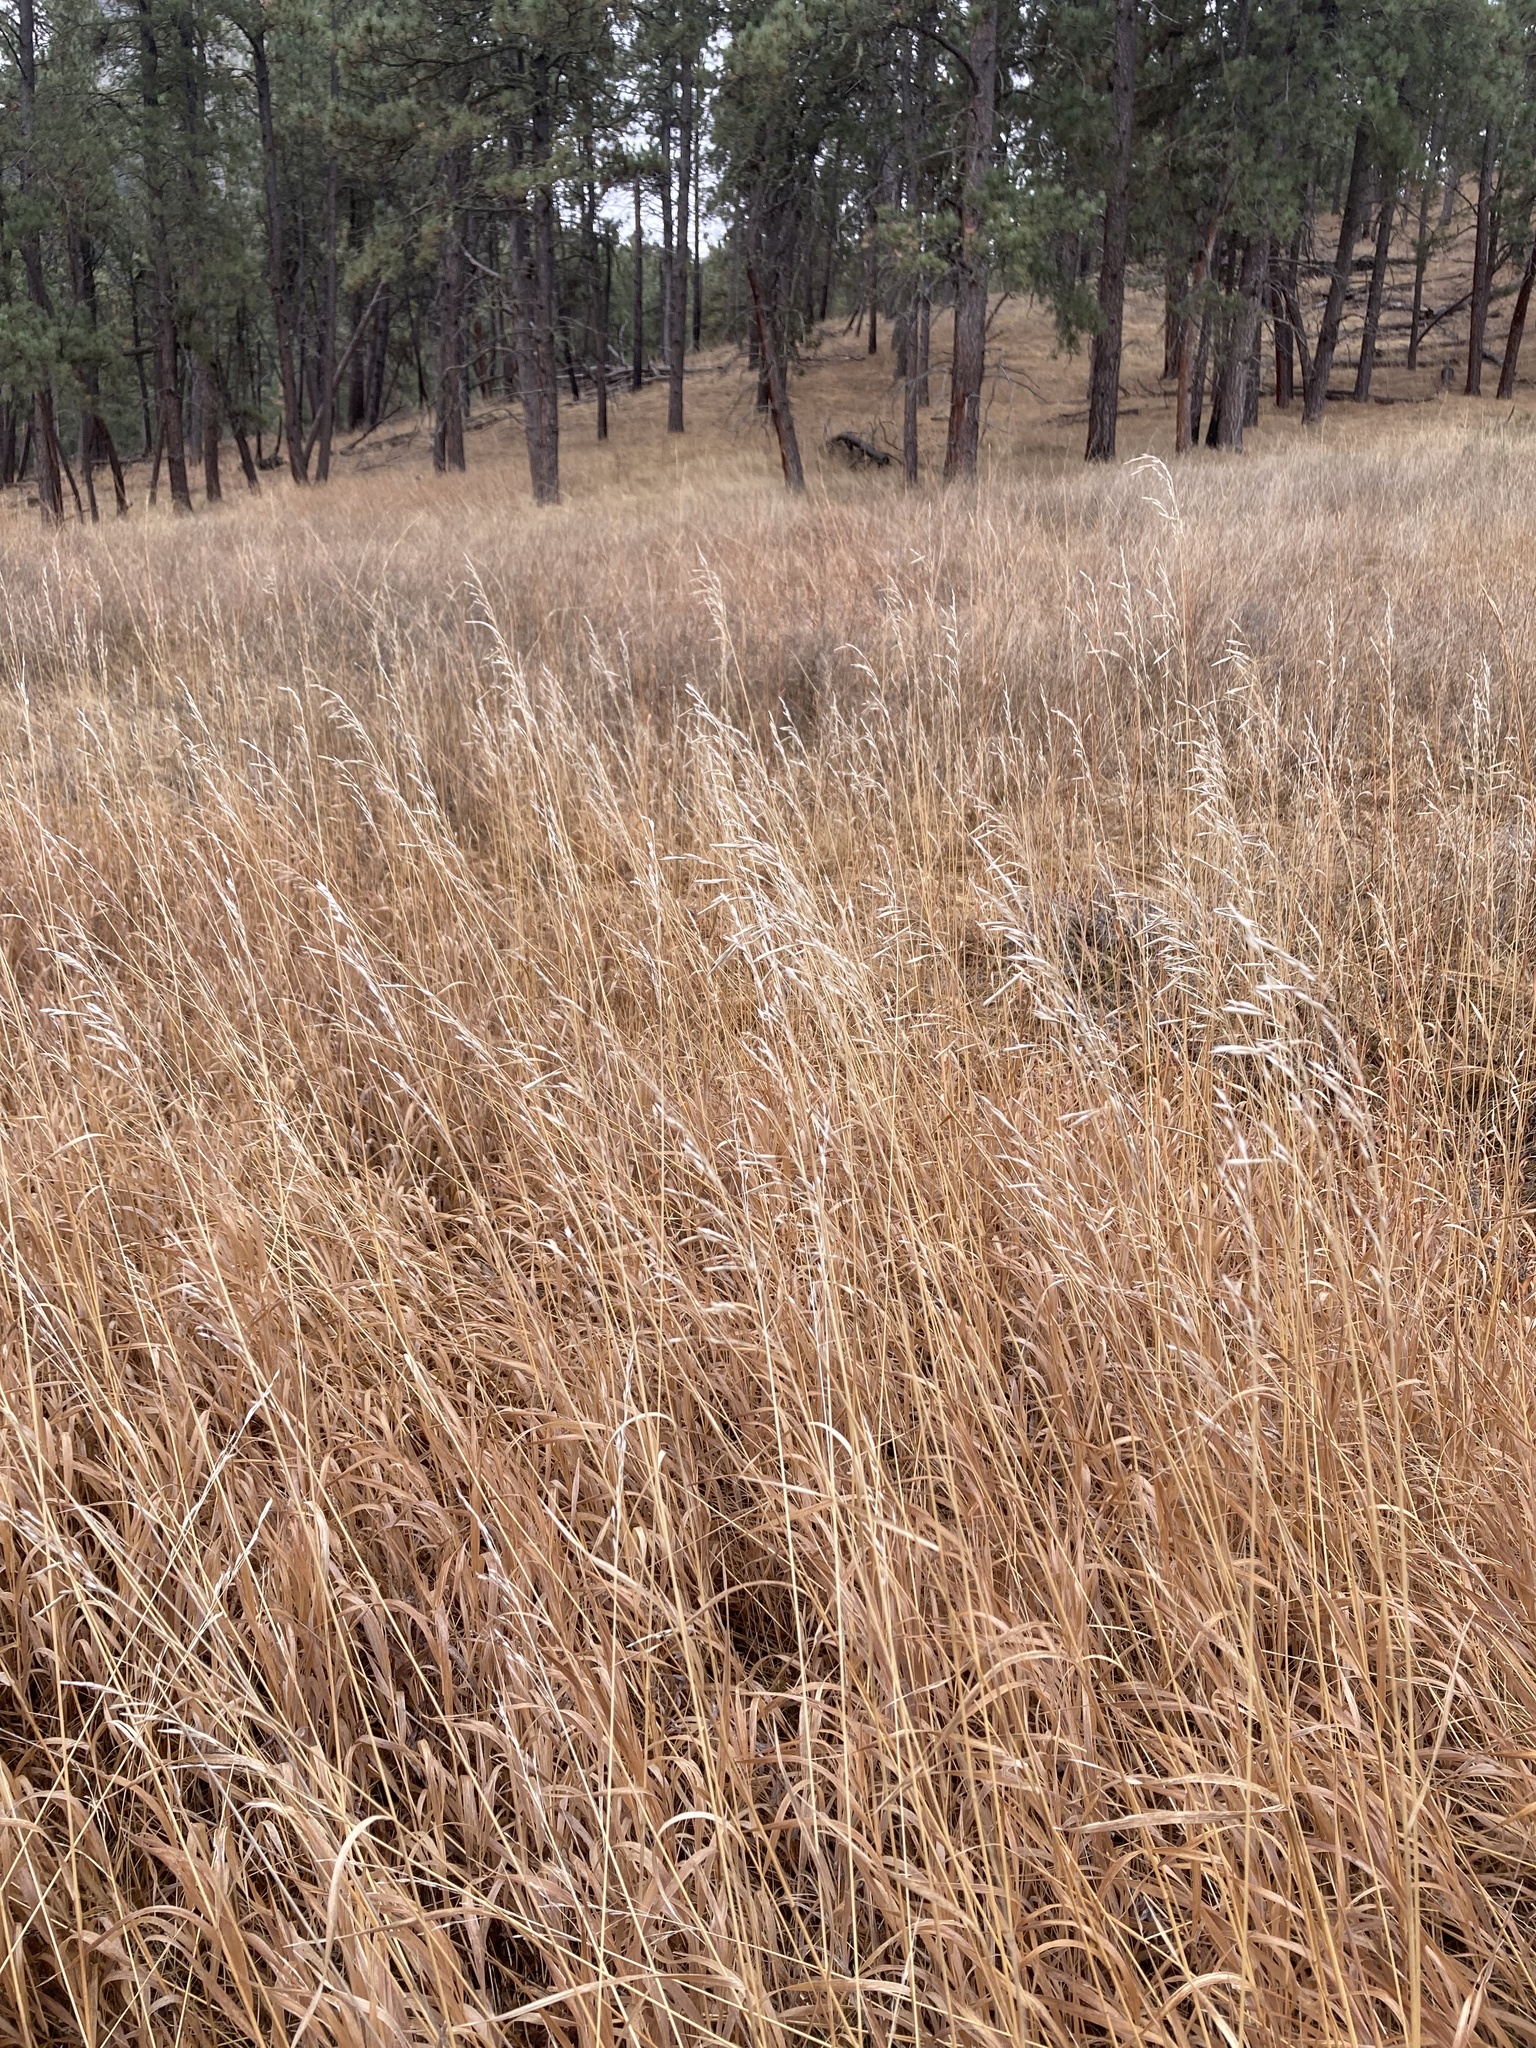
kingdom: Plantae
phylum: Tracheophyta
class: Liliopsida
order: Poales
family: Poaceae
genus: Bromus
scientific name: Bromus inermis
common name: Smooth brome
